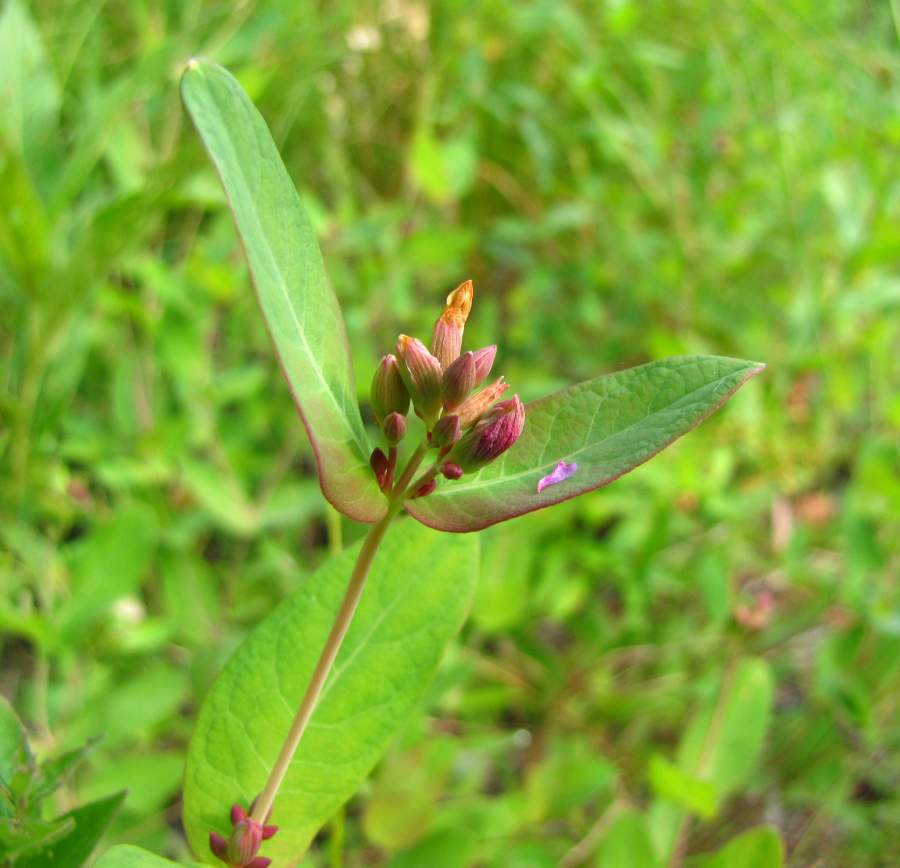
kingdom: Plantae
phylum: Tracheophyta
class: Magnoliopsida
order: Malpighiales
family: Hypericaceae
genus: Triadenum
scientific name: Triadenum fraseri
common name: Fraser's marsh st. johnswort
